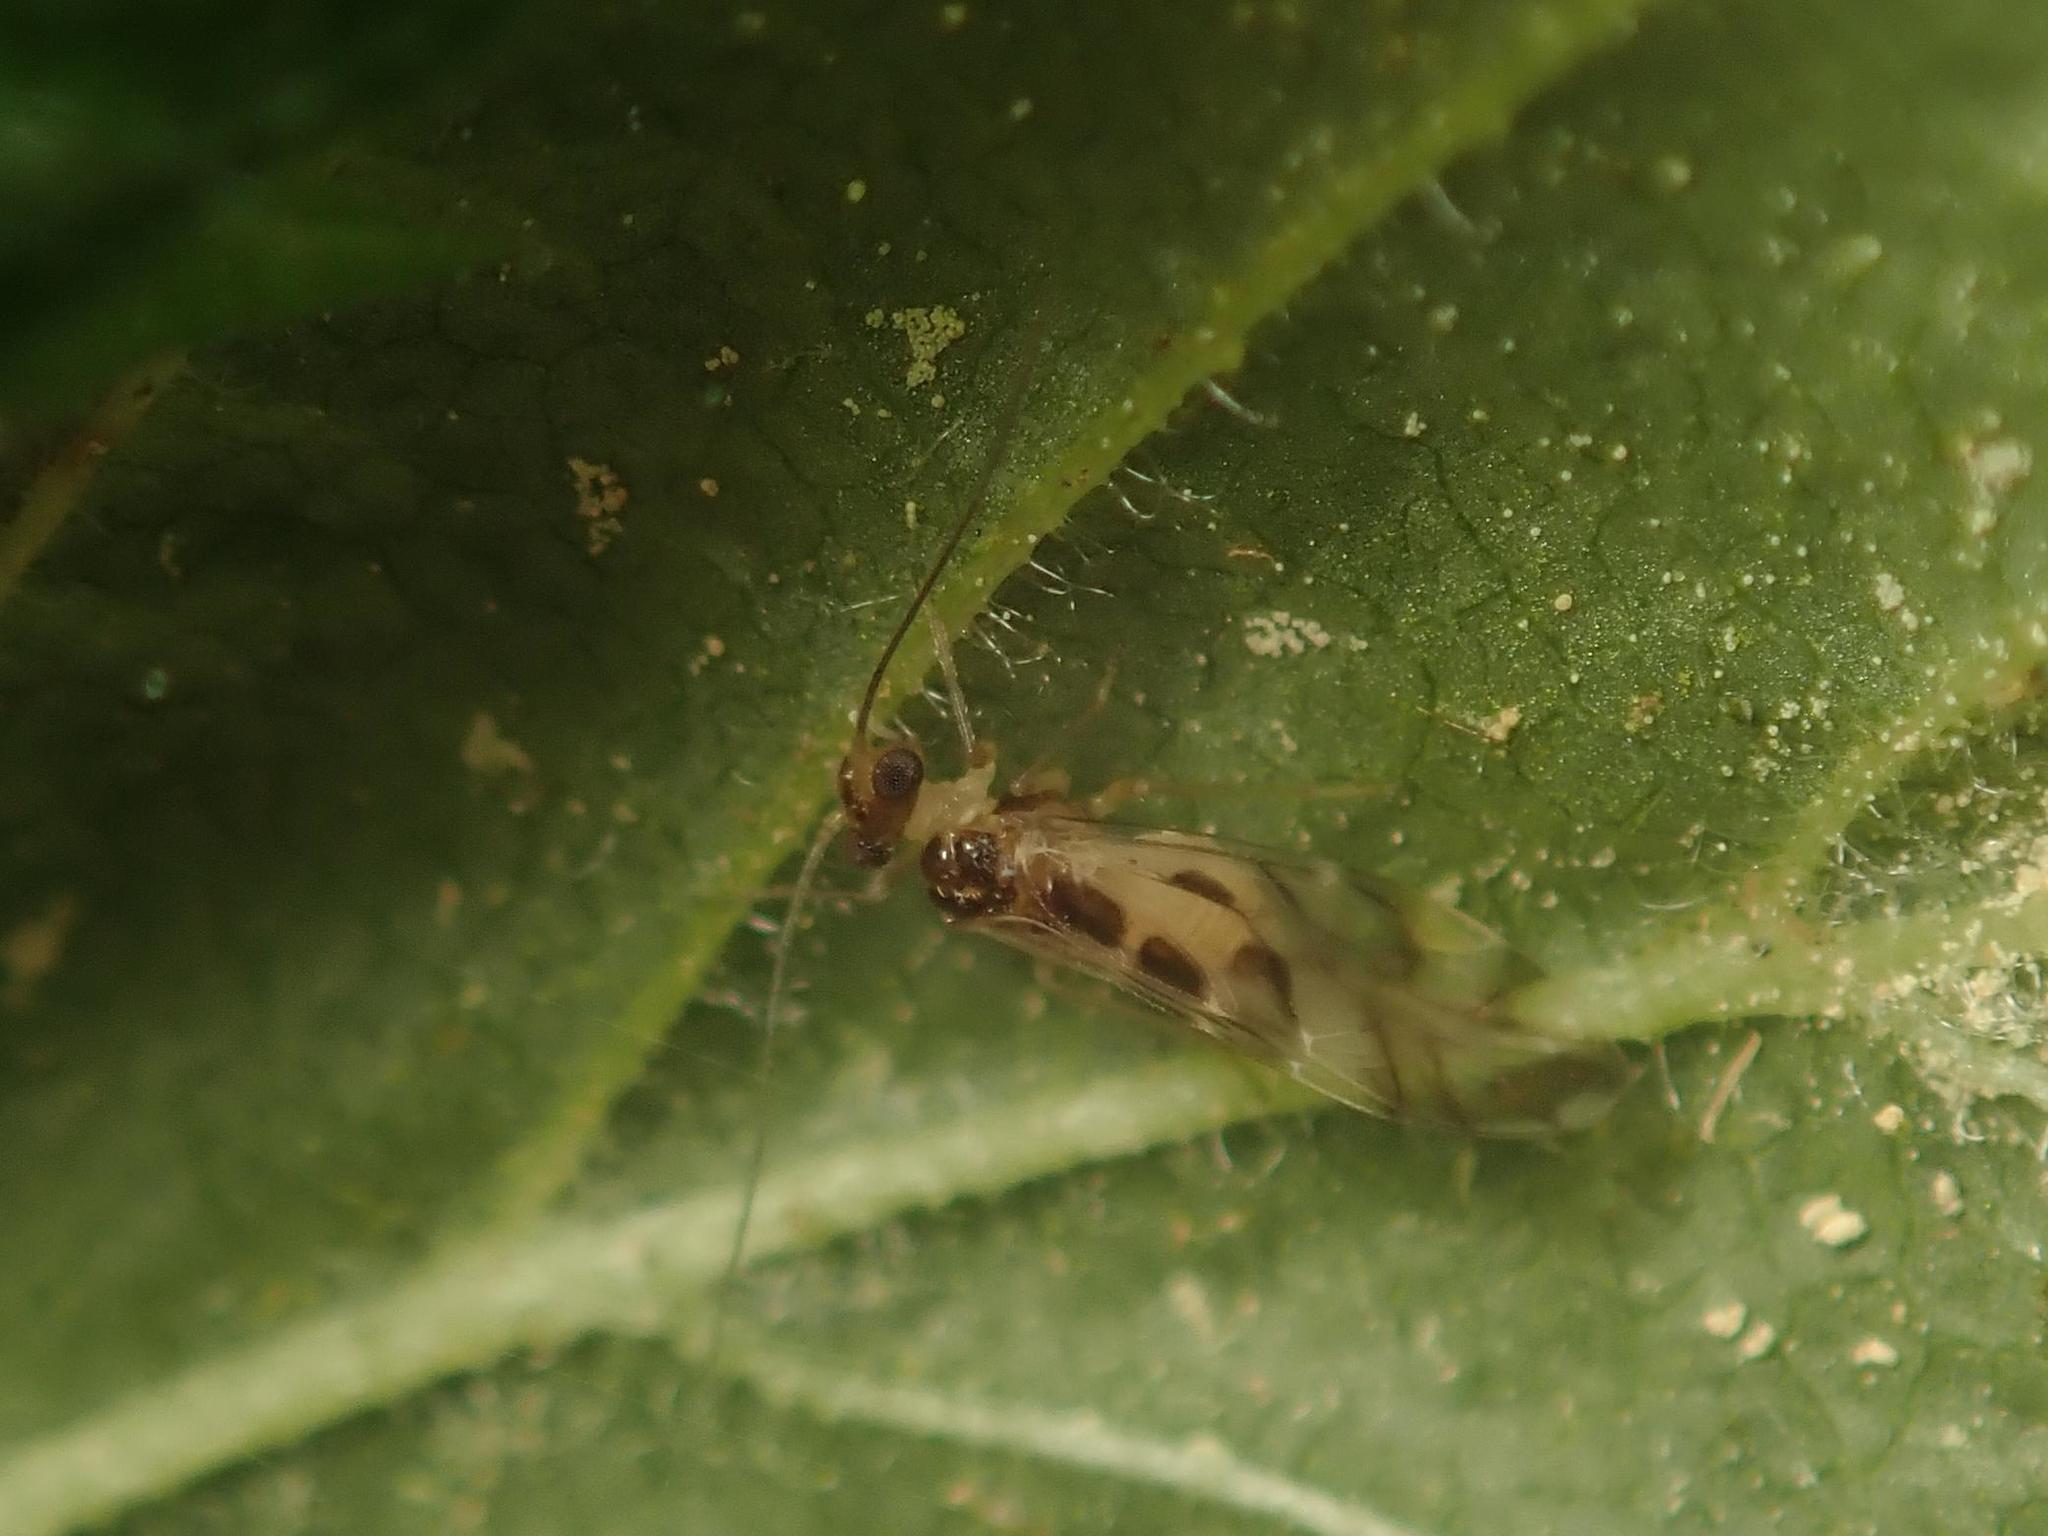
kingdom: Animalia
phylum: Arthropoda
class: Insecta
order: Psocodea
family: Stenopsocidae
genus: Graphopsocus
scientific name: Graphopsocus cruciatus
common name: Lizard bark louse
